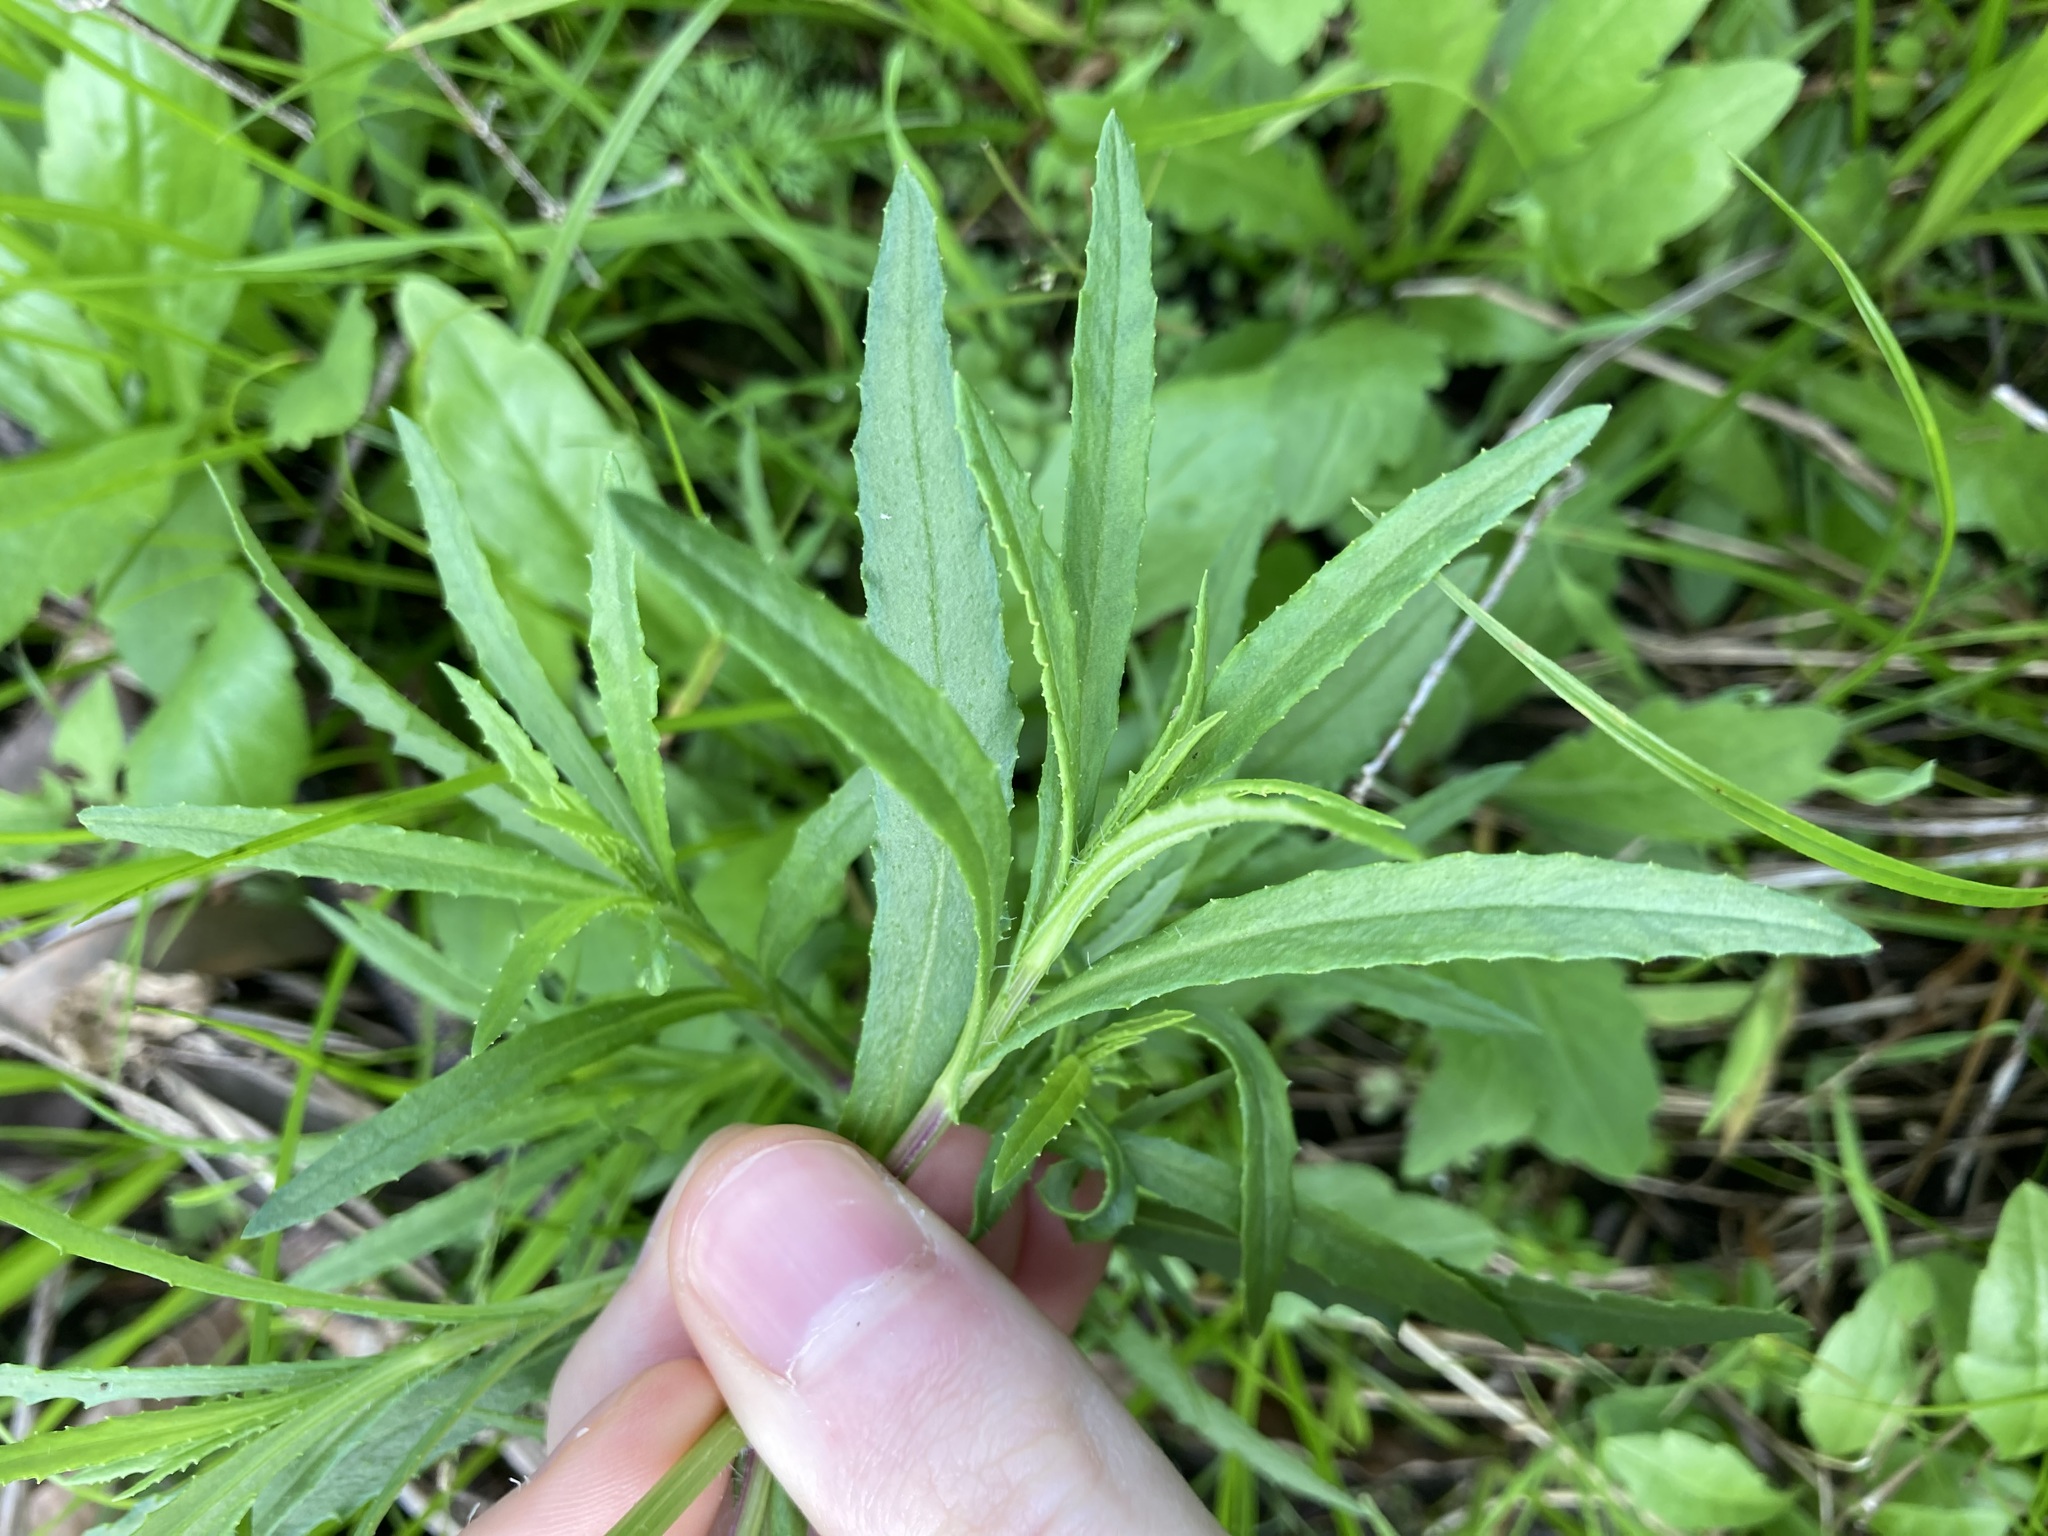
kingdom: Plantae
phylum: Tracheophyta
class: Magnoliopsida
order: Asterales
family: Asteraceae
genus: Senecio
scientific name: Senecio madagascariensis
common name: Madagascar ragwort
